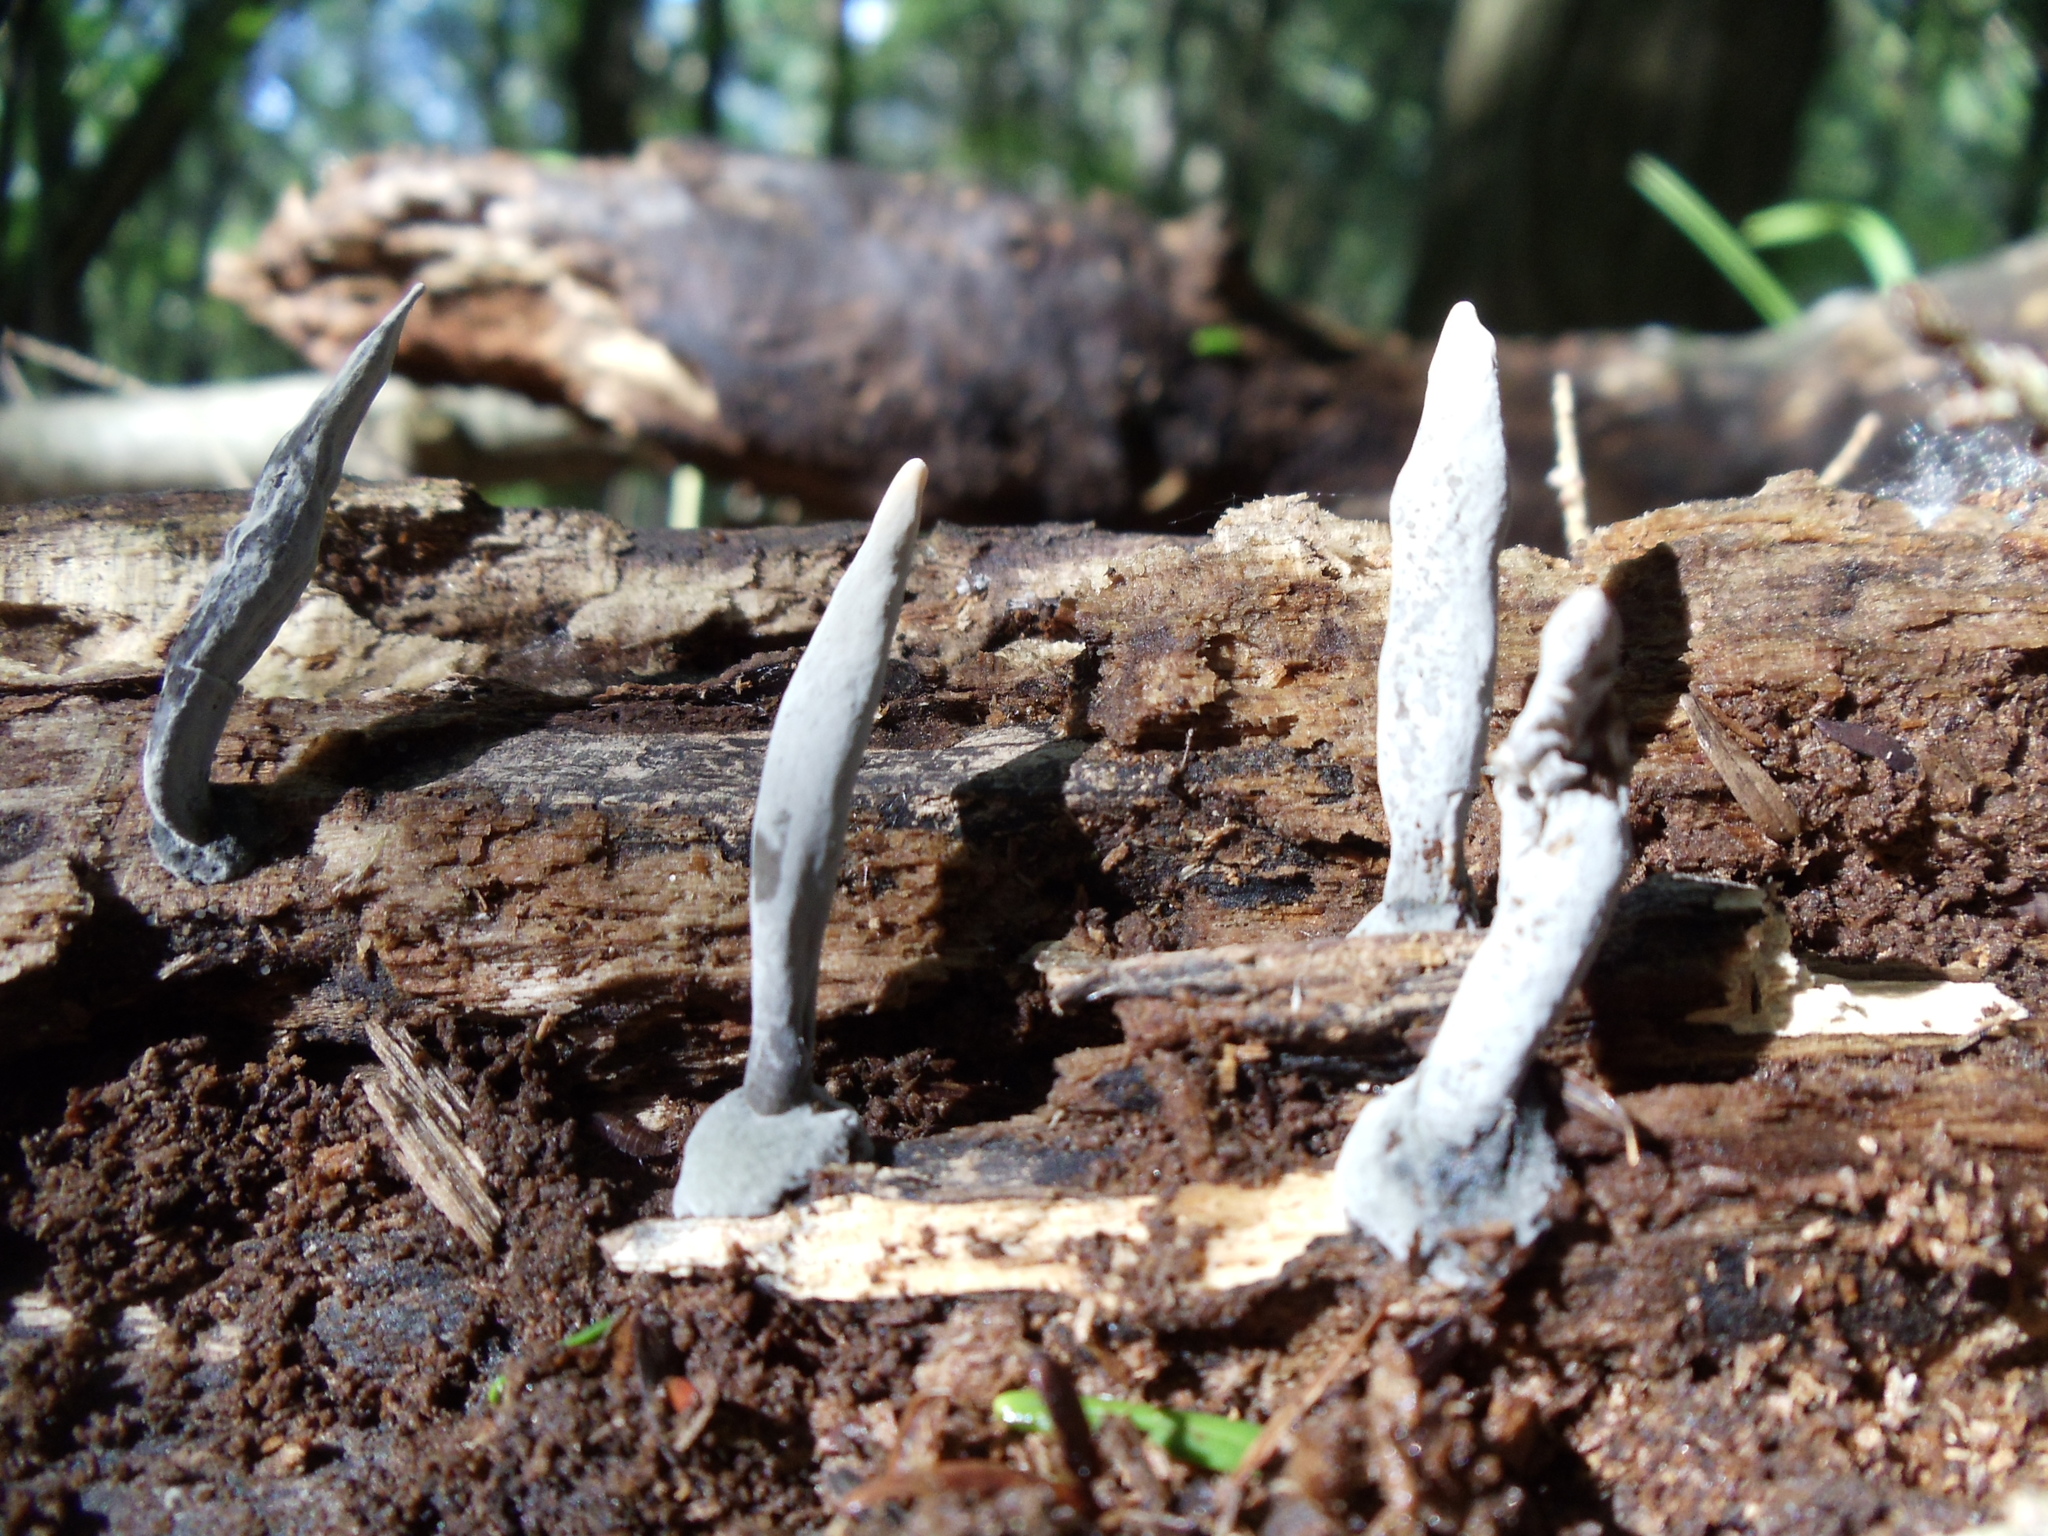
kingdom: Fungi
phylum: Ascomycota
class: Sordariomycetes
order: Xylariales
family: Xylariaceae
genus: Xylaria
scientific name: Xylaria
